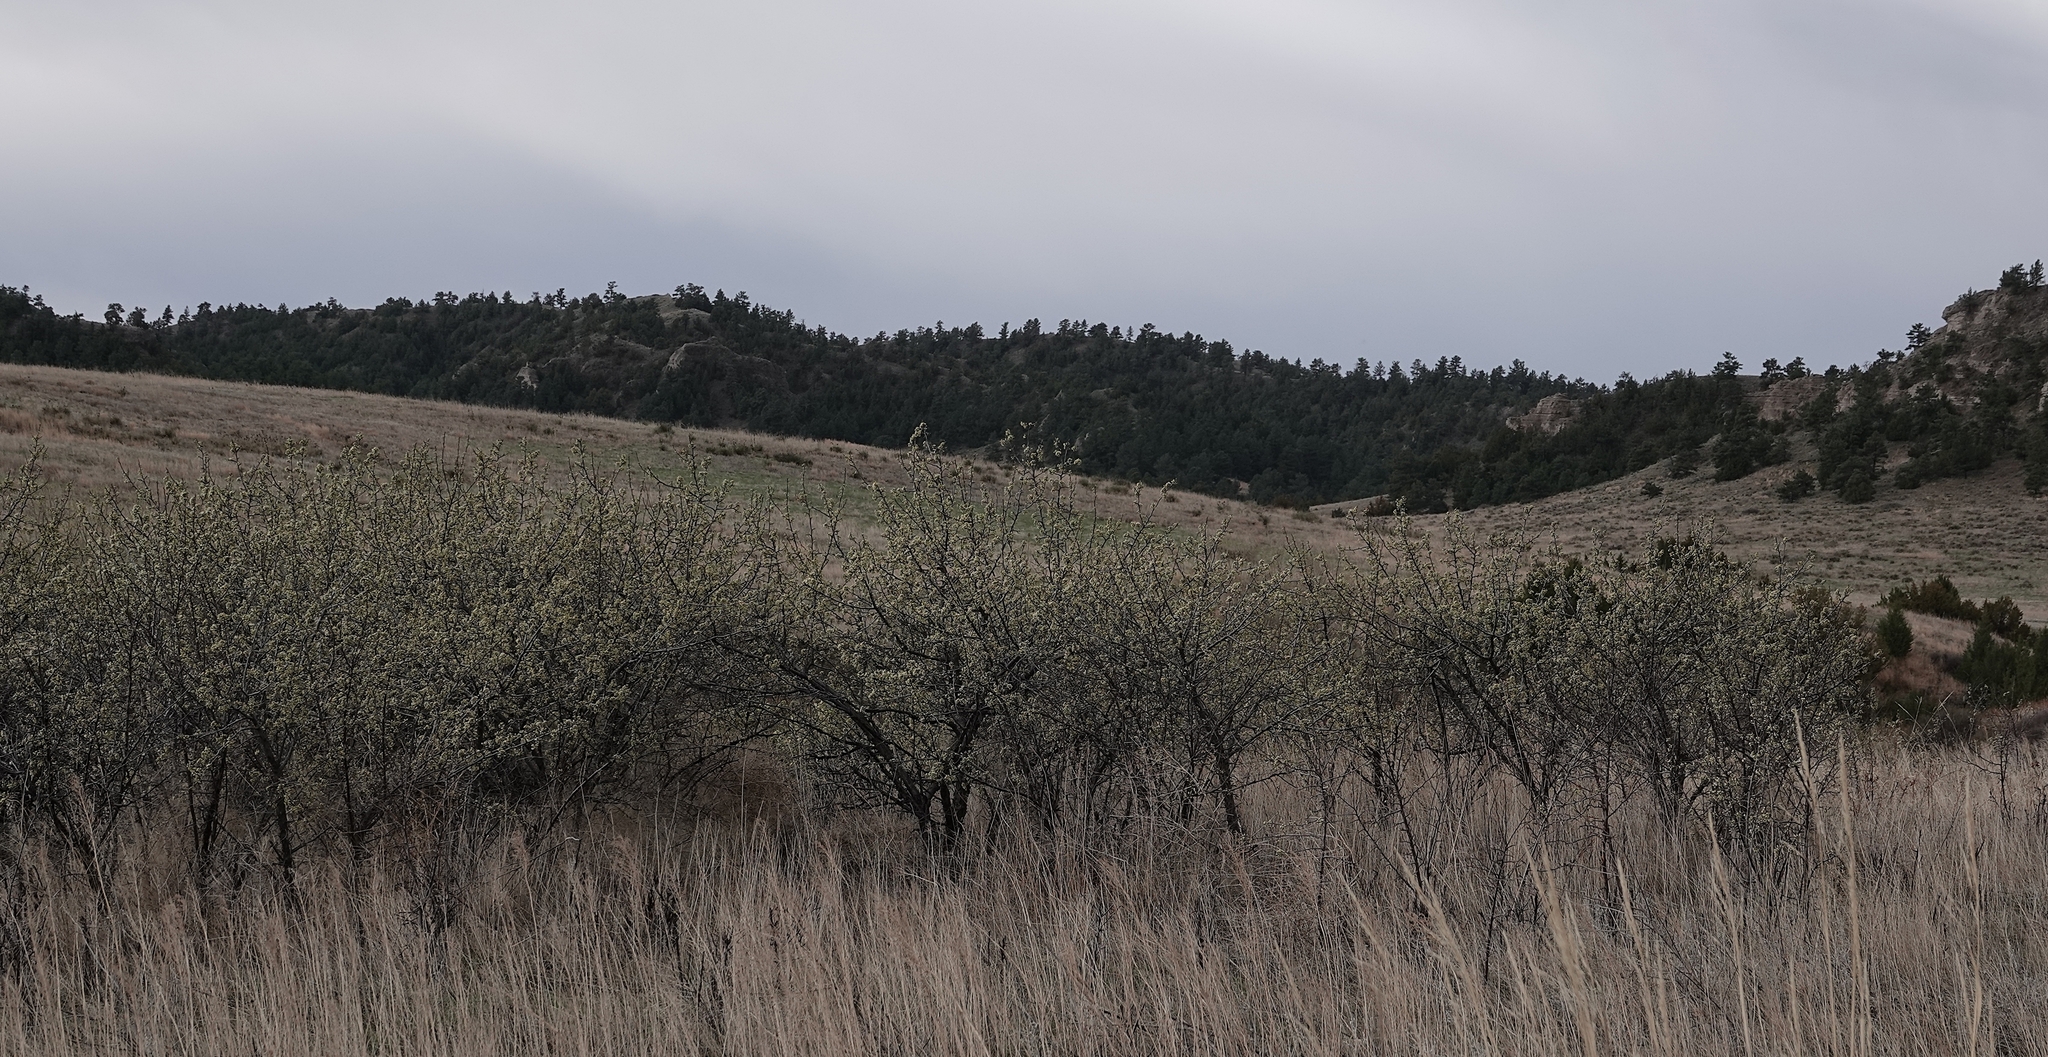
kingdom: Plantae
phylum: Tracheophyta
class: Magnoliopsida
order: Rosales
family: Rosaceae
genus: Prunus
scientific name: Prunus americana
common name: American plum
